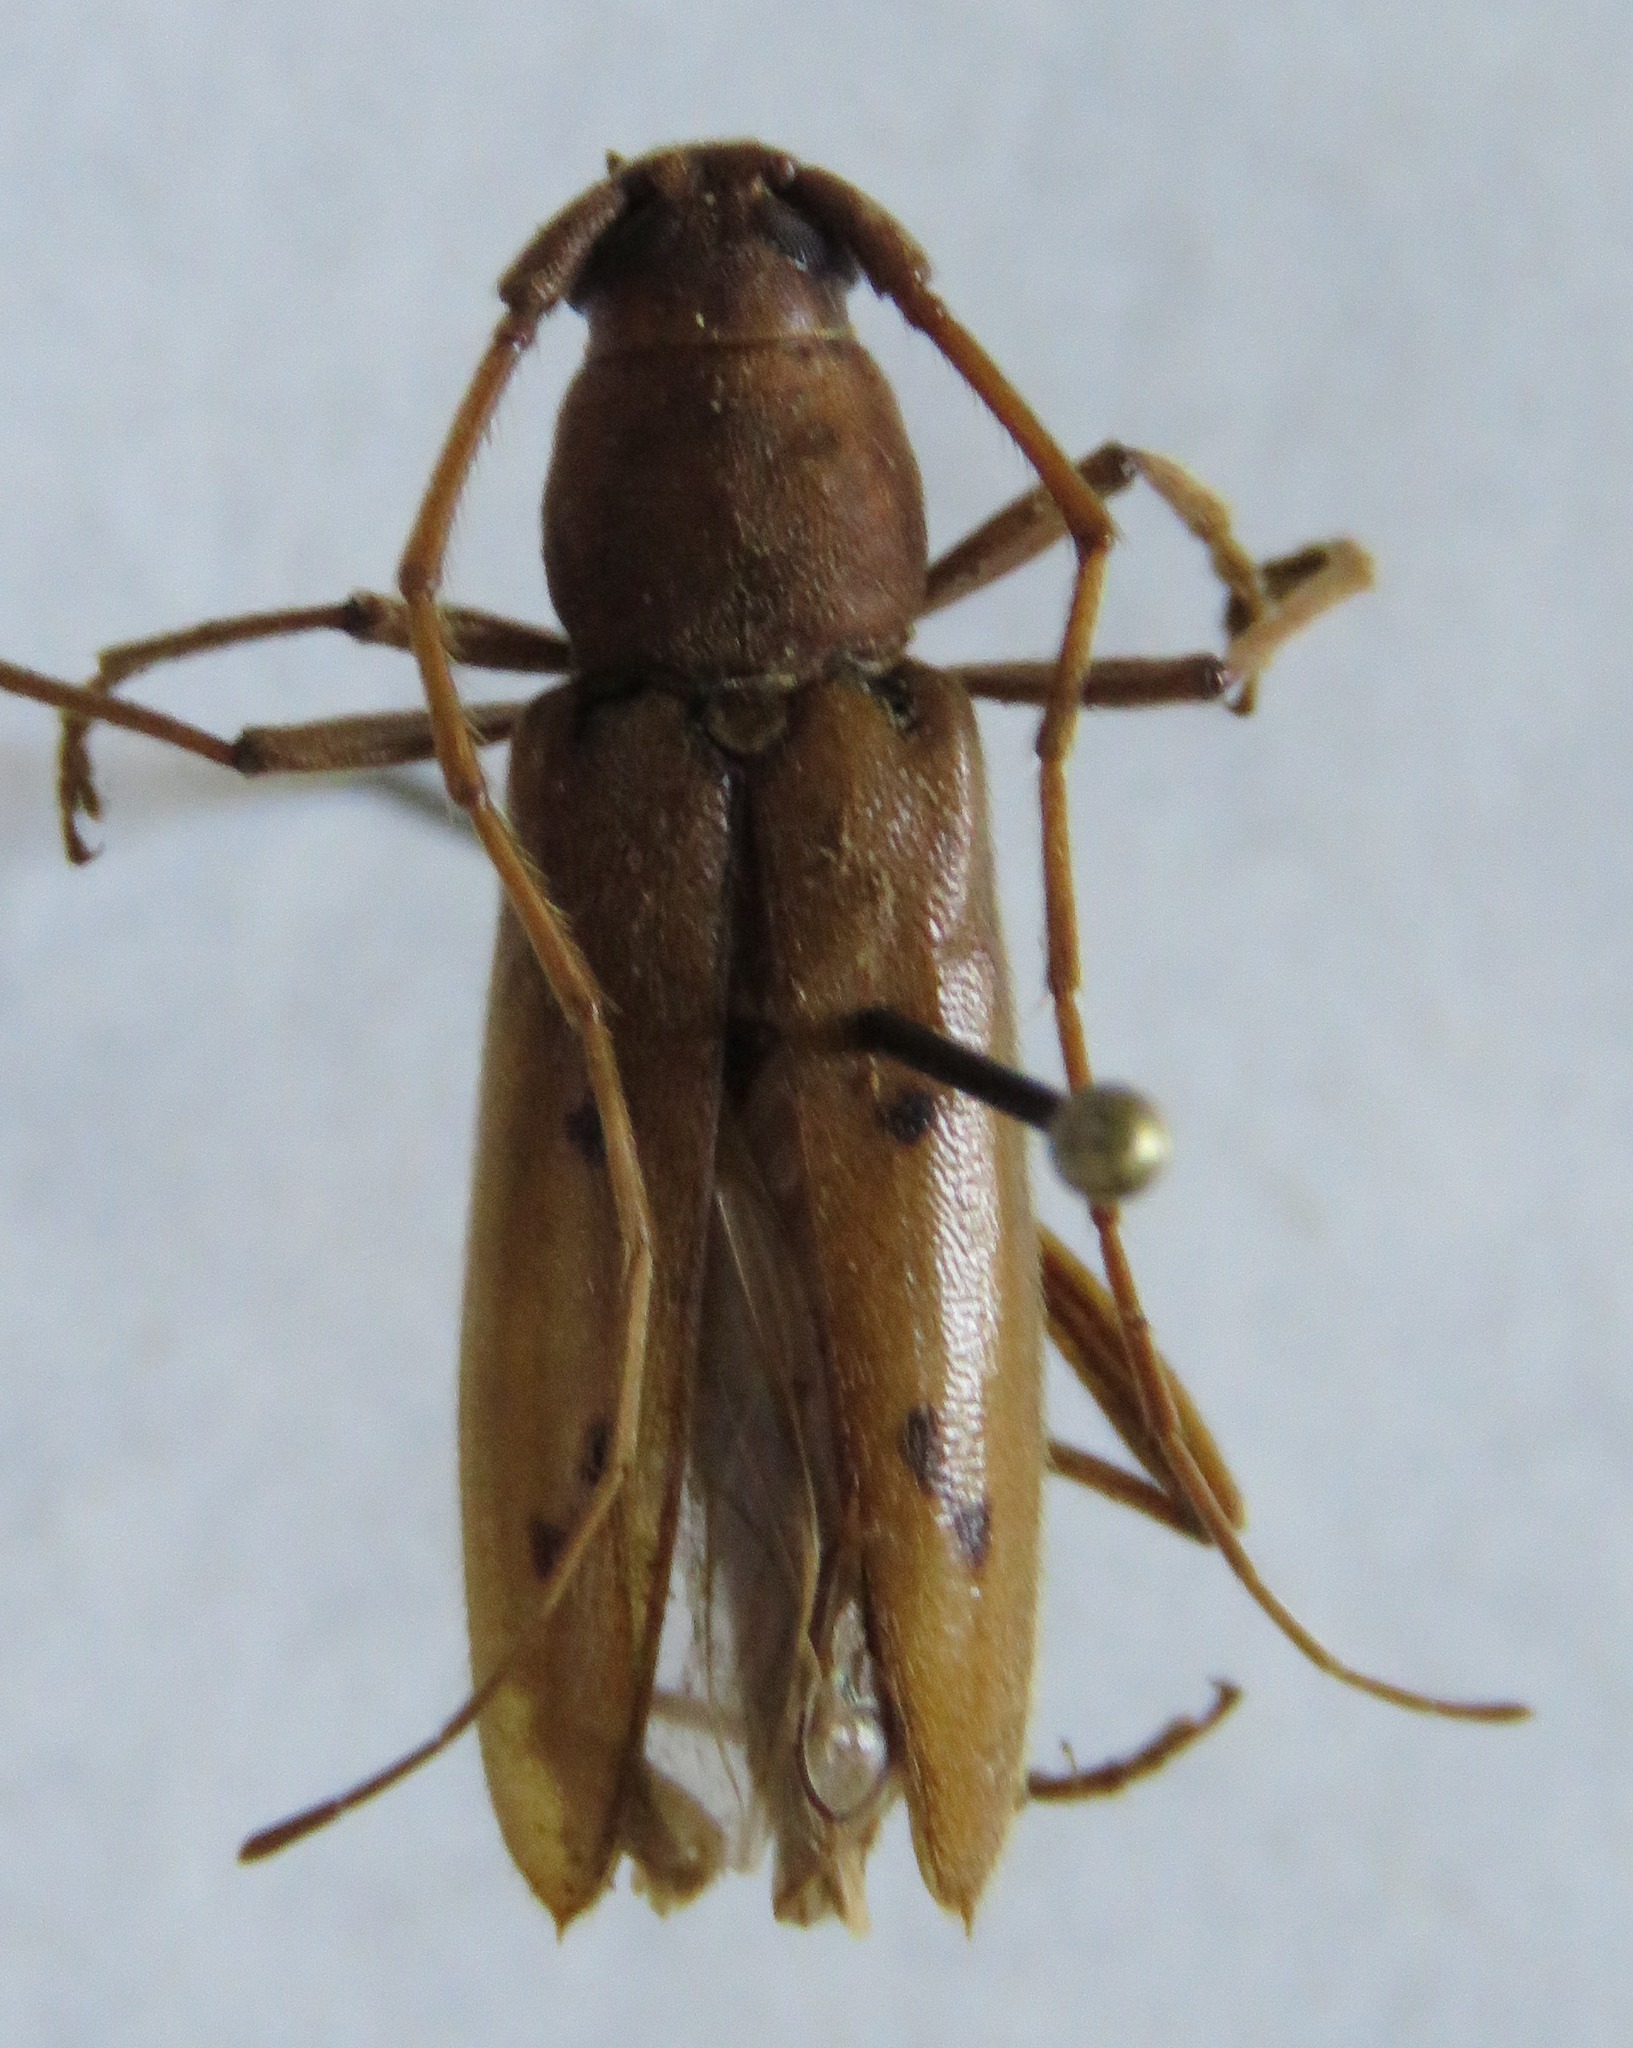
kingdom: Animalia
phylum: Arthropoda
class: Insecta
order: Coleoptera
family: Cerambycidae
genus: Achryson
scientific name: Achryson surinamum
